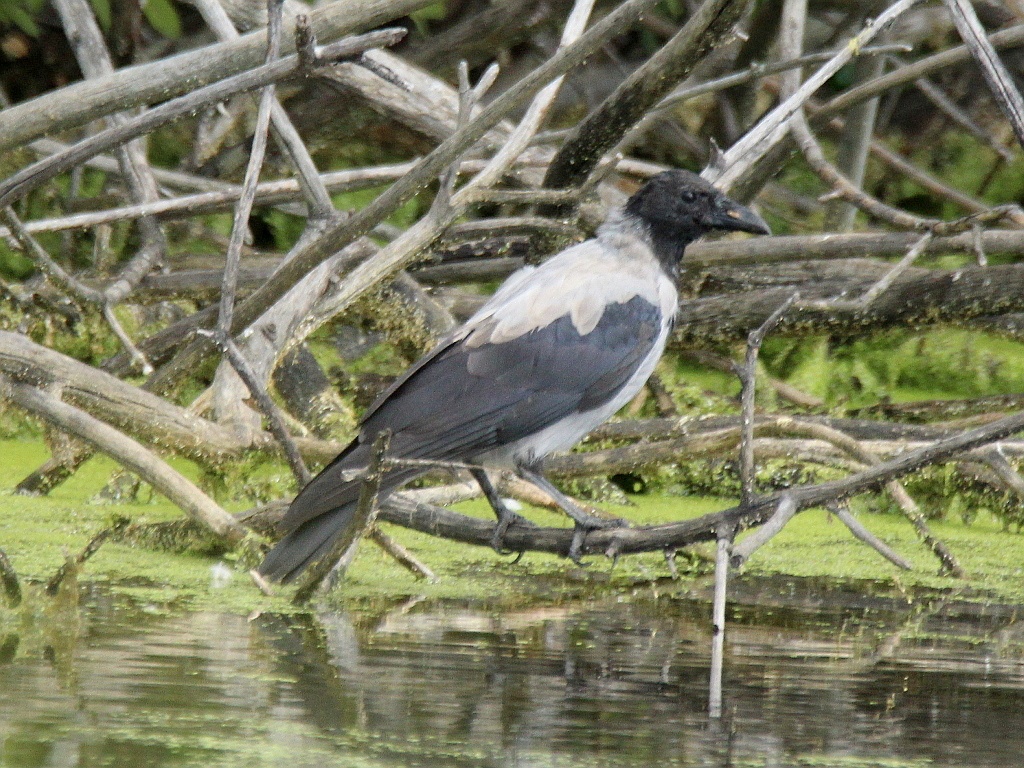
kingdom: Animalia
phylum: Chordata
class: Aves
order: Passeriformes
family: Corvidae
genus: Corvus
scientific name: Corvus cornix
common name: Hooded crow
